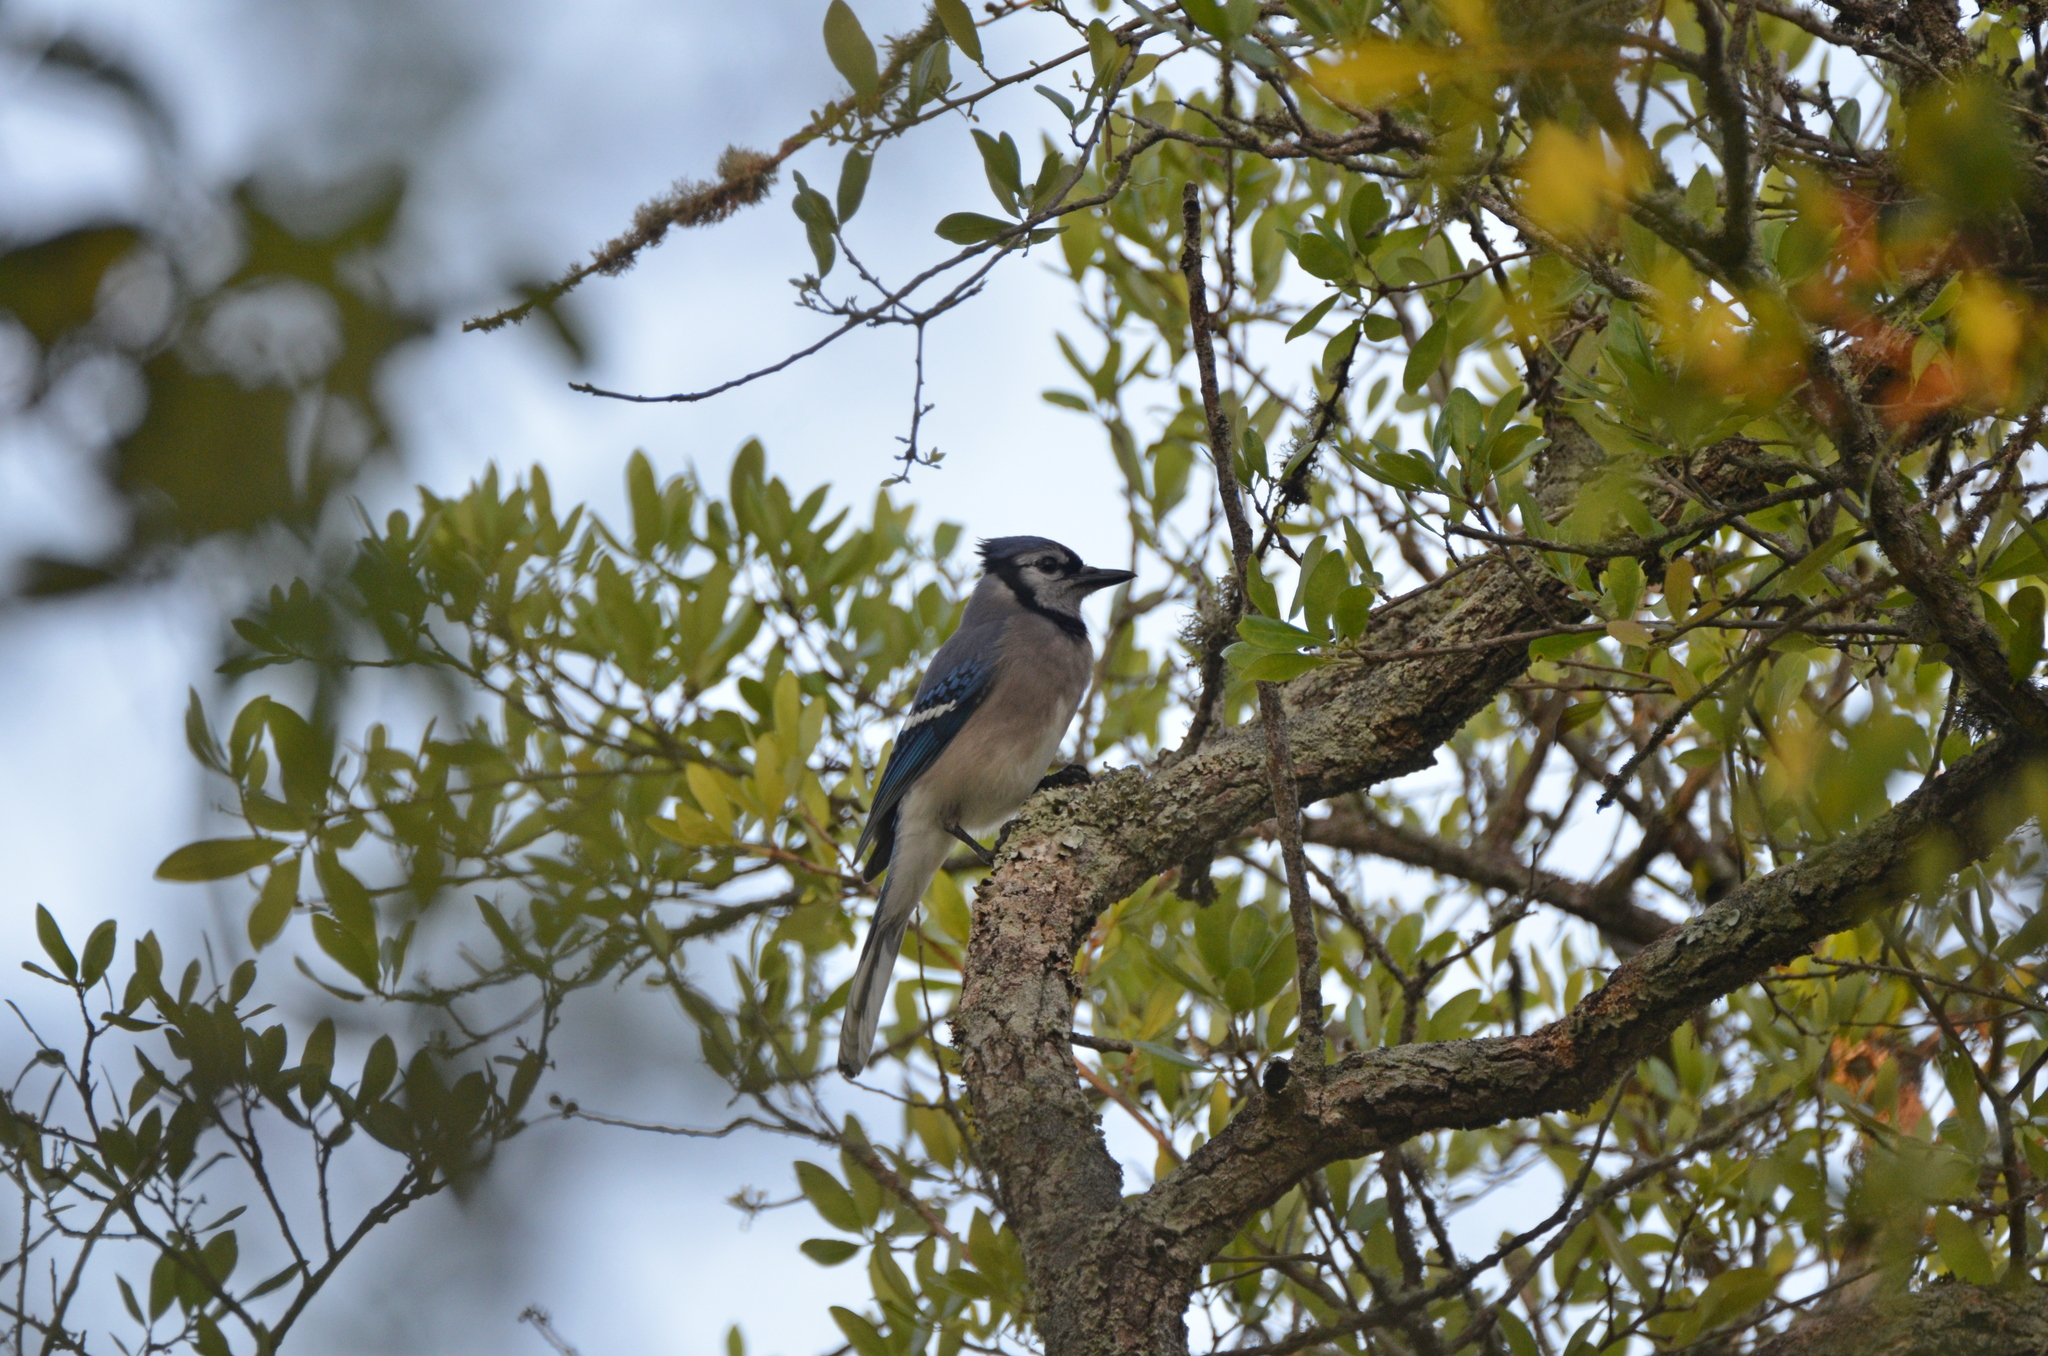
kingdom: Animalia
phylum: Chordata
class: Aves
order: Passeriformes
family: Corvidae
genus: Cyanocitta
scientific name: Cyanocitta cristata
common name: Blue jay
